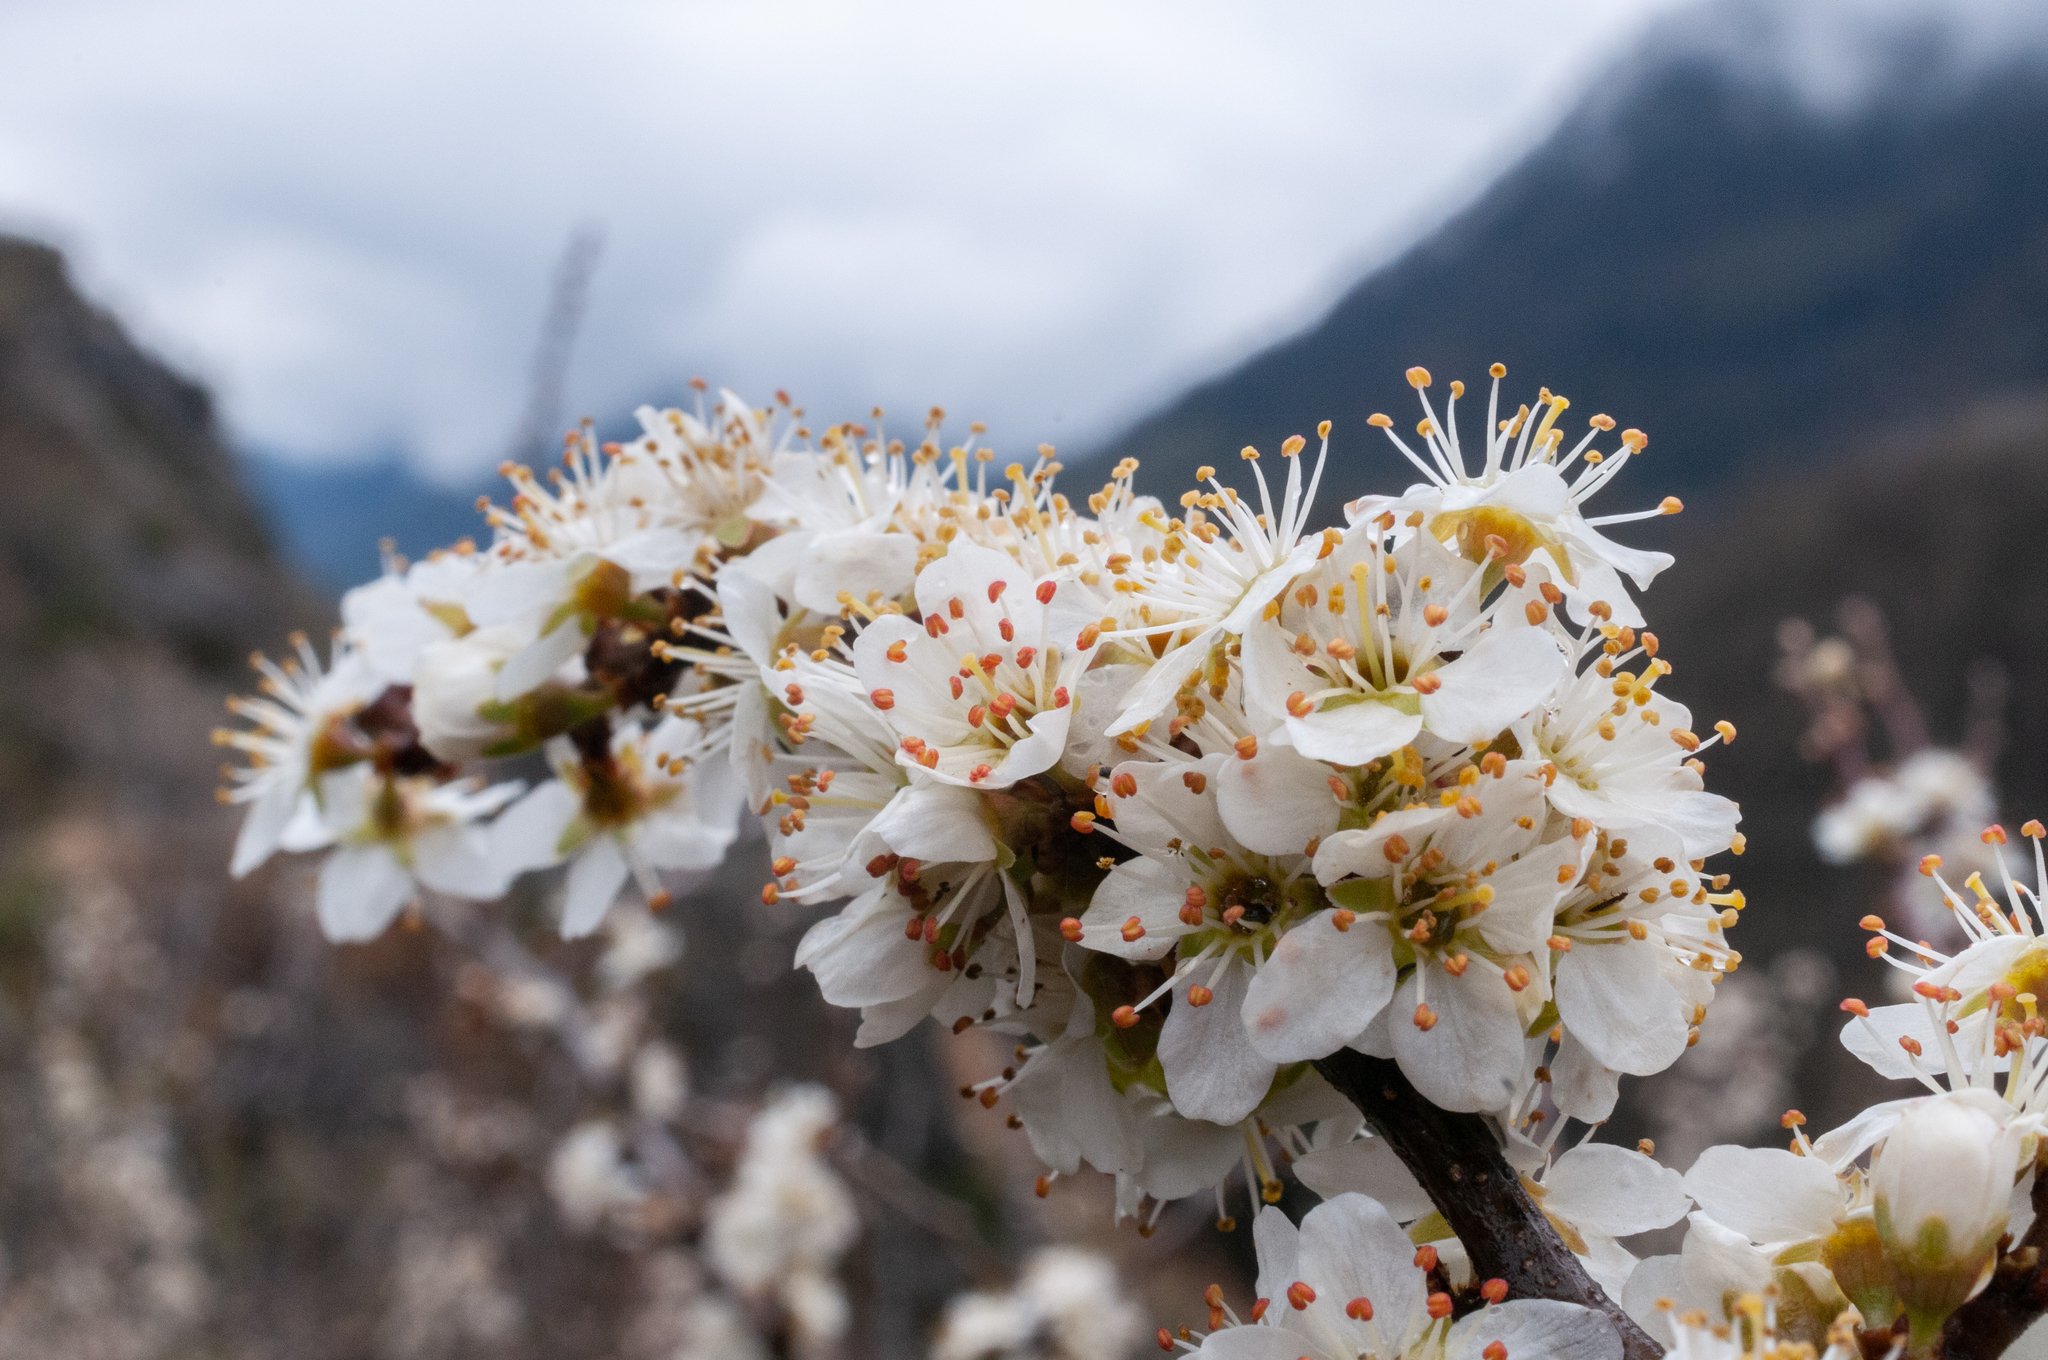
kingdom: Plantae
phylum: Tracheophyta
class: Magnoliopsida
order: Rosales
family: Rosaceae
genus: Prunus
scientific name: Prunus spinosa
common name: Blackthorn
